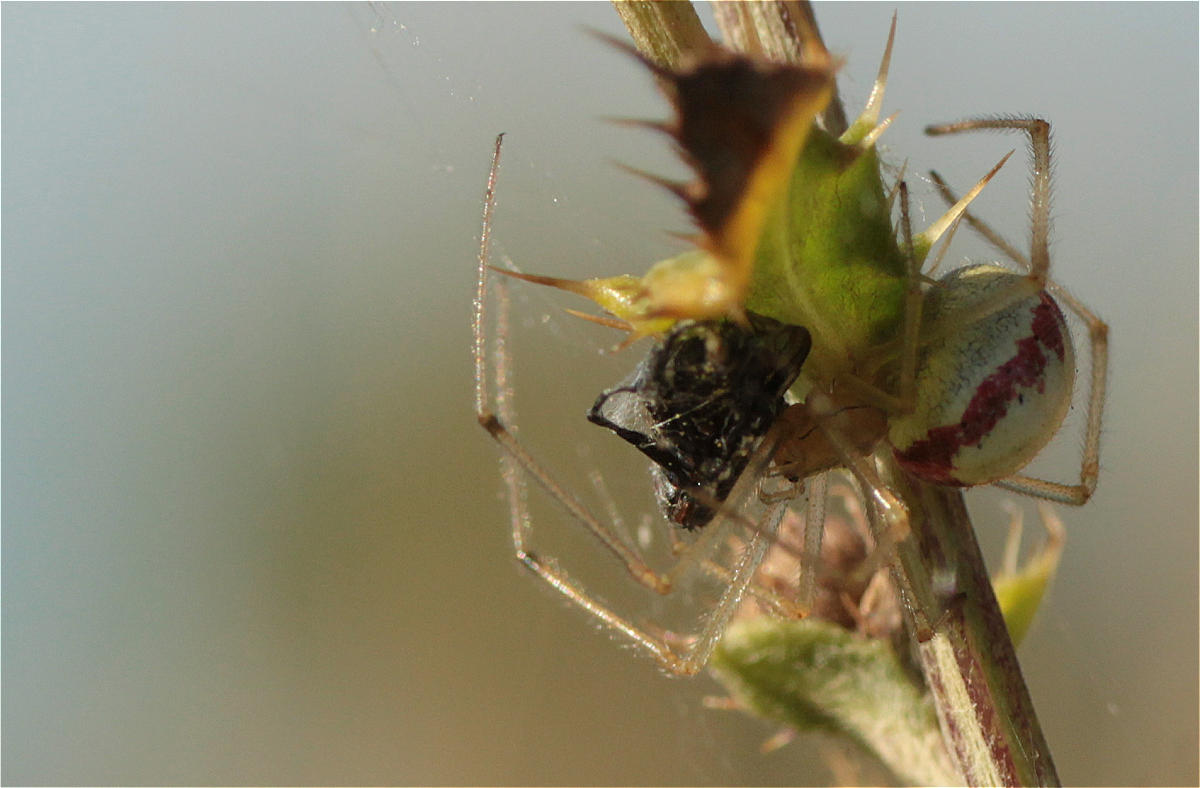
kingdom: Animalia
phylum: Arthropoda
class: Arachnida
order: Araneae
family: Theridiidae
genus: Enoplognatha
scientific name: Enoplognatha
